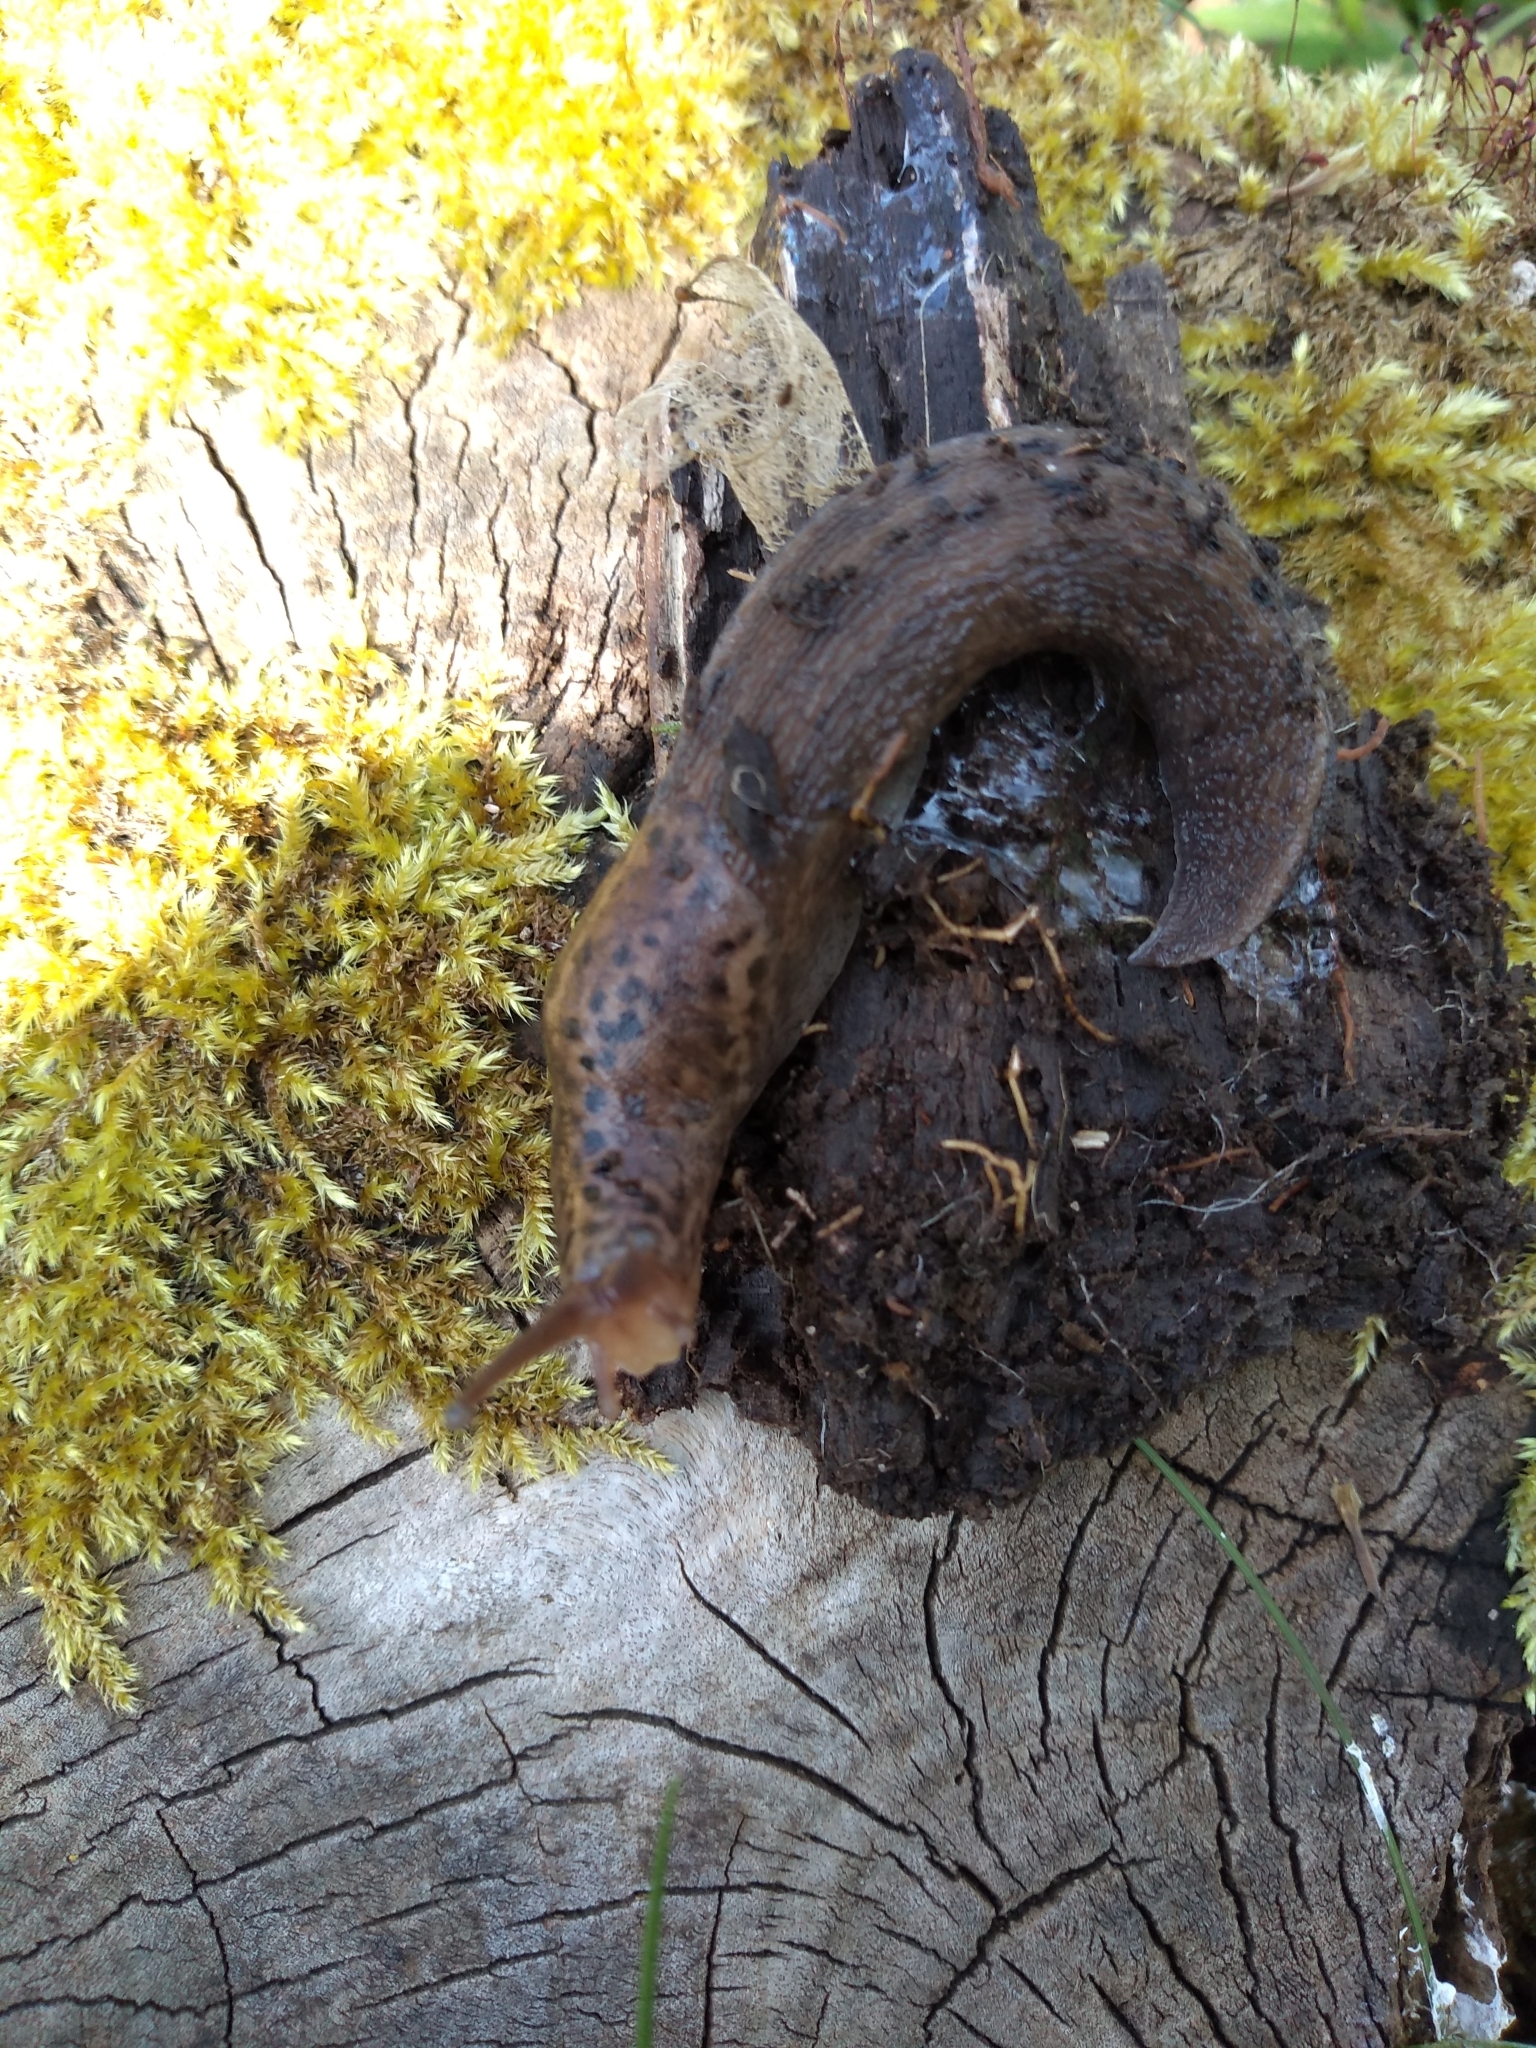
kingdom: Animalia
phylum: Mollusca
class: Gastropoda
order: Stylommatophora
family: Limacidae
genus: Limax
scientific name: Limax maximus
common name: Great grey slug
